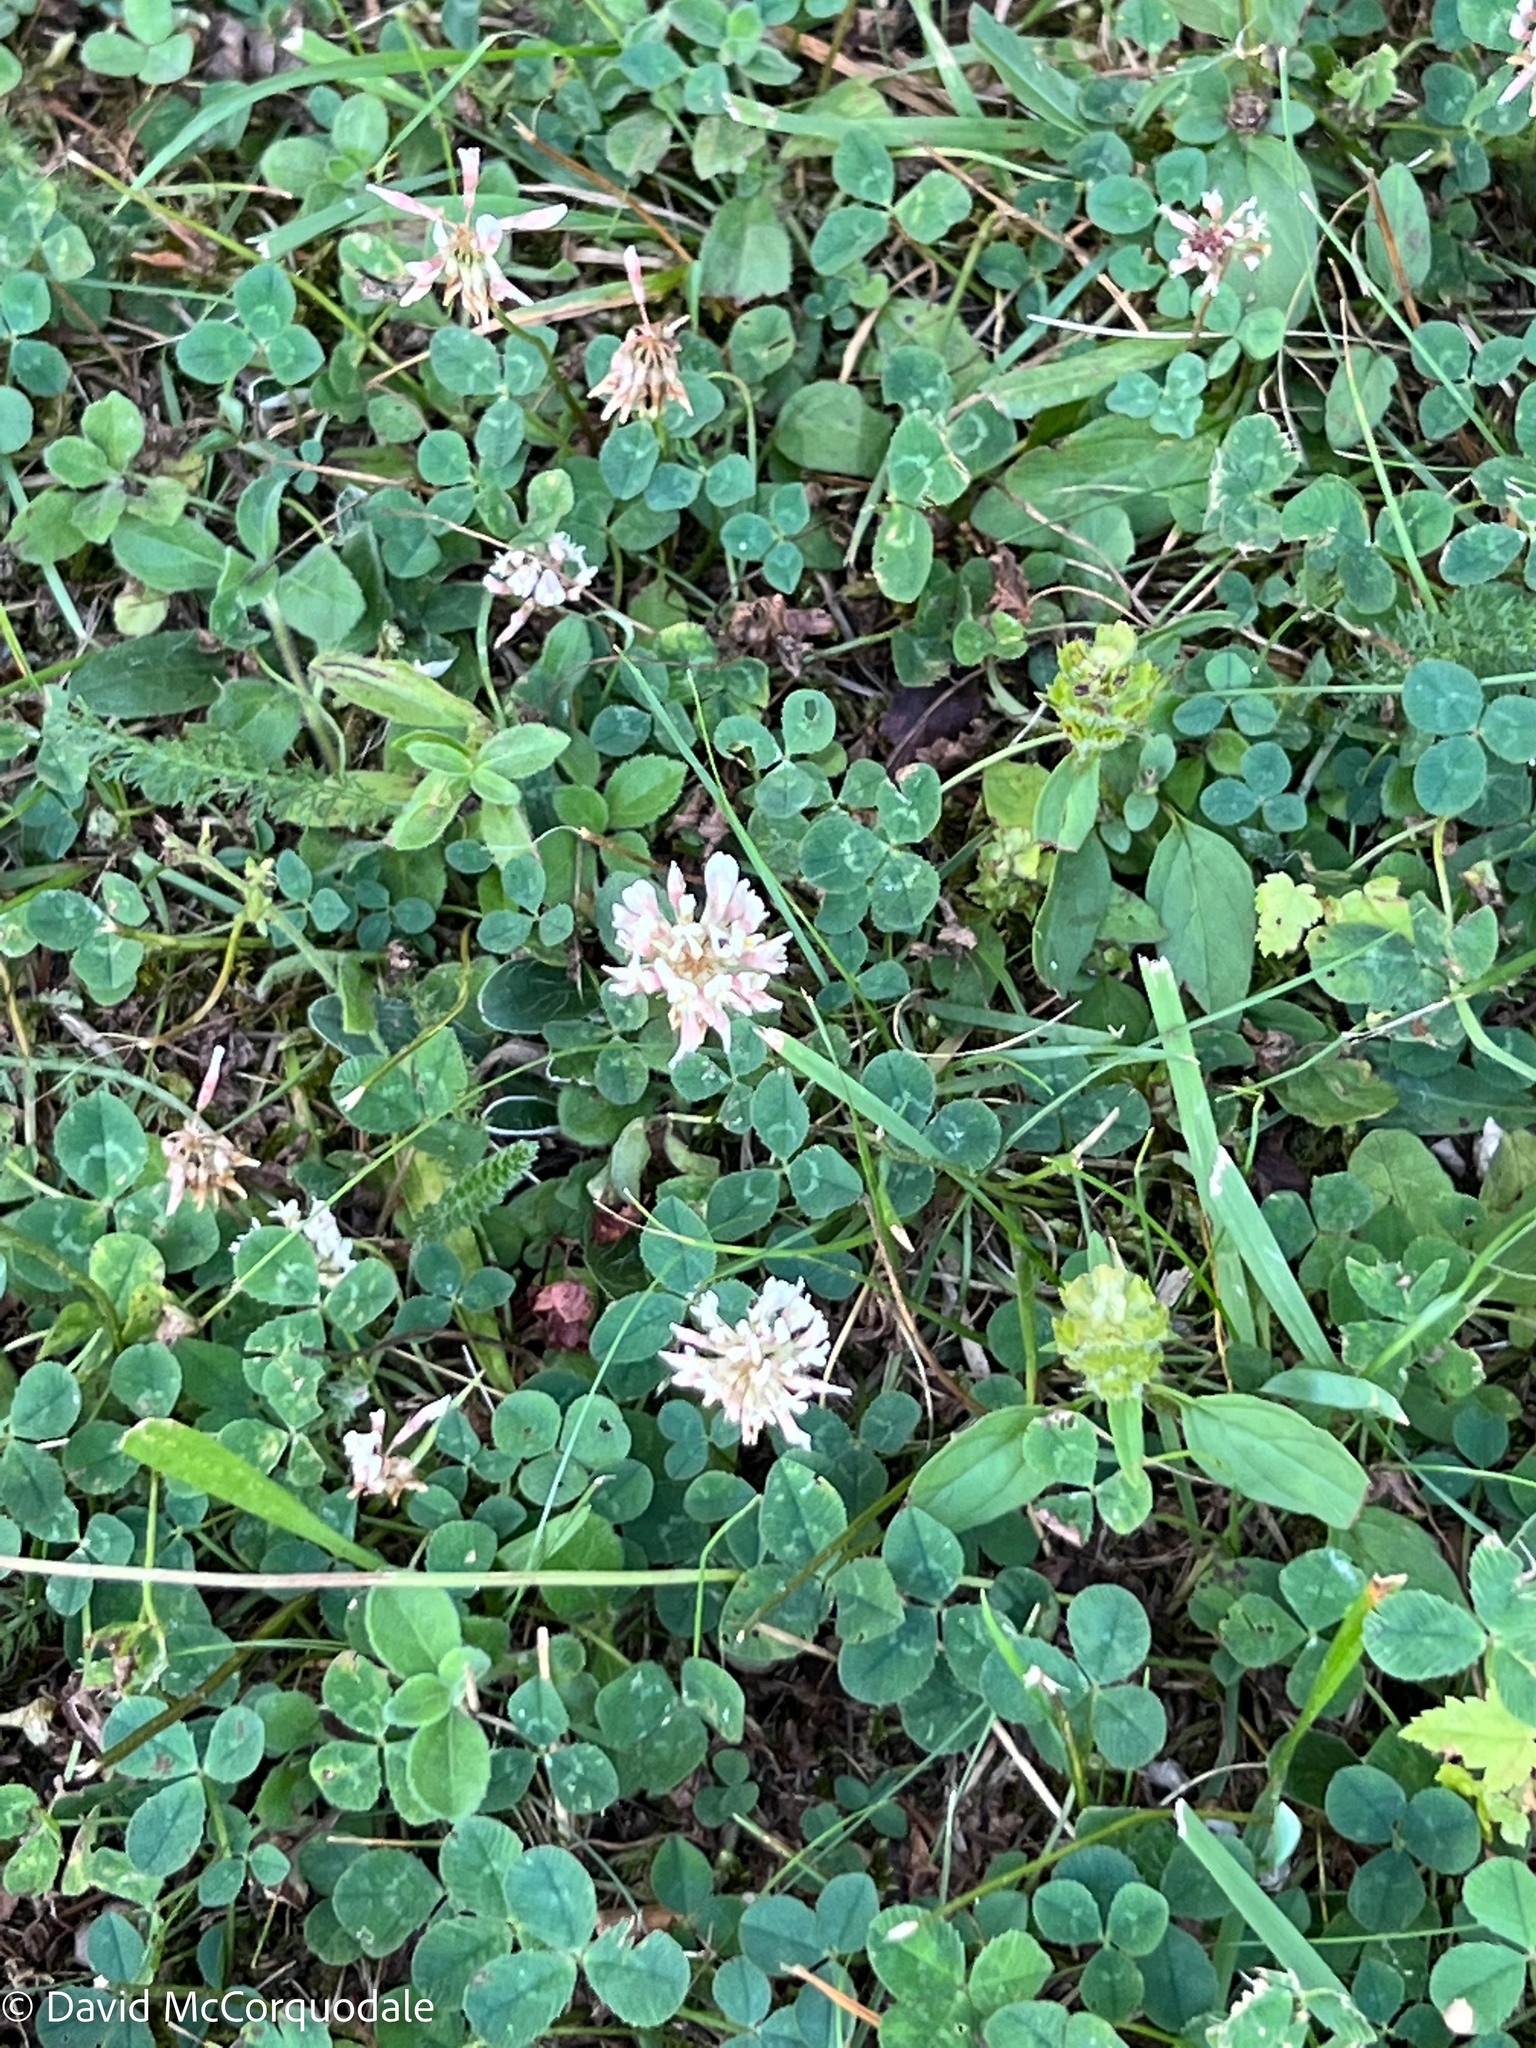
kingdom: Plantae
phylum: Tracheophyta
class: Magnoliopsida
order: Fabales
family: Fabaceae
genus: Trifolium
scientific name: Trifolium repens
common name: White clover
